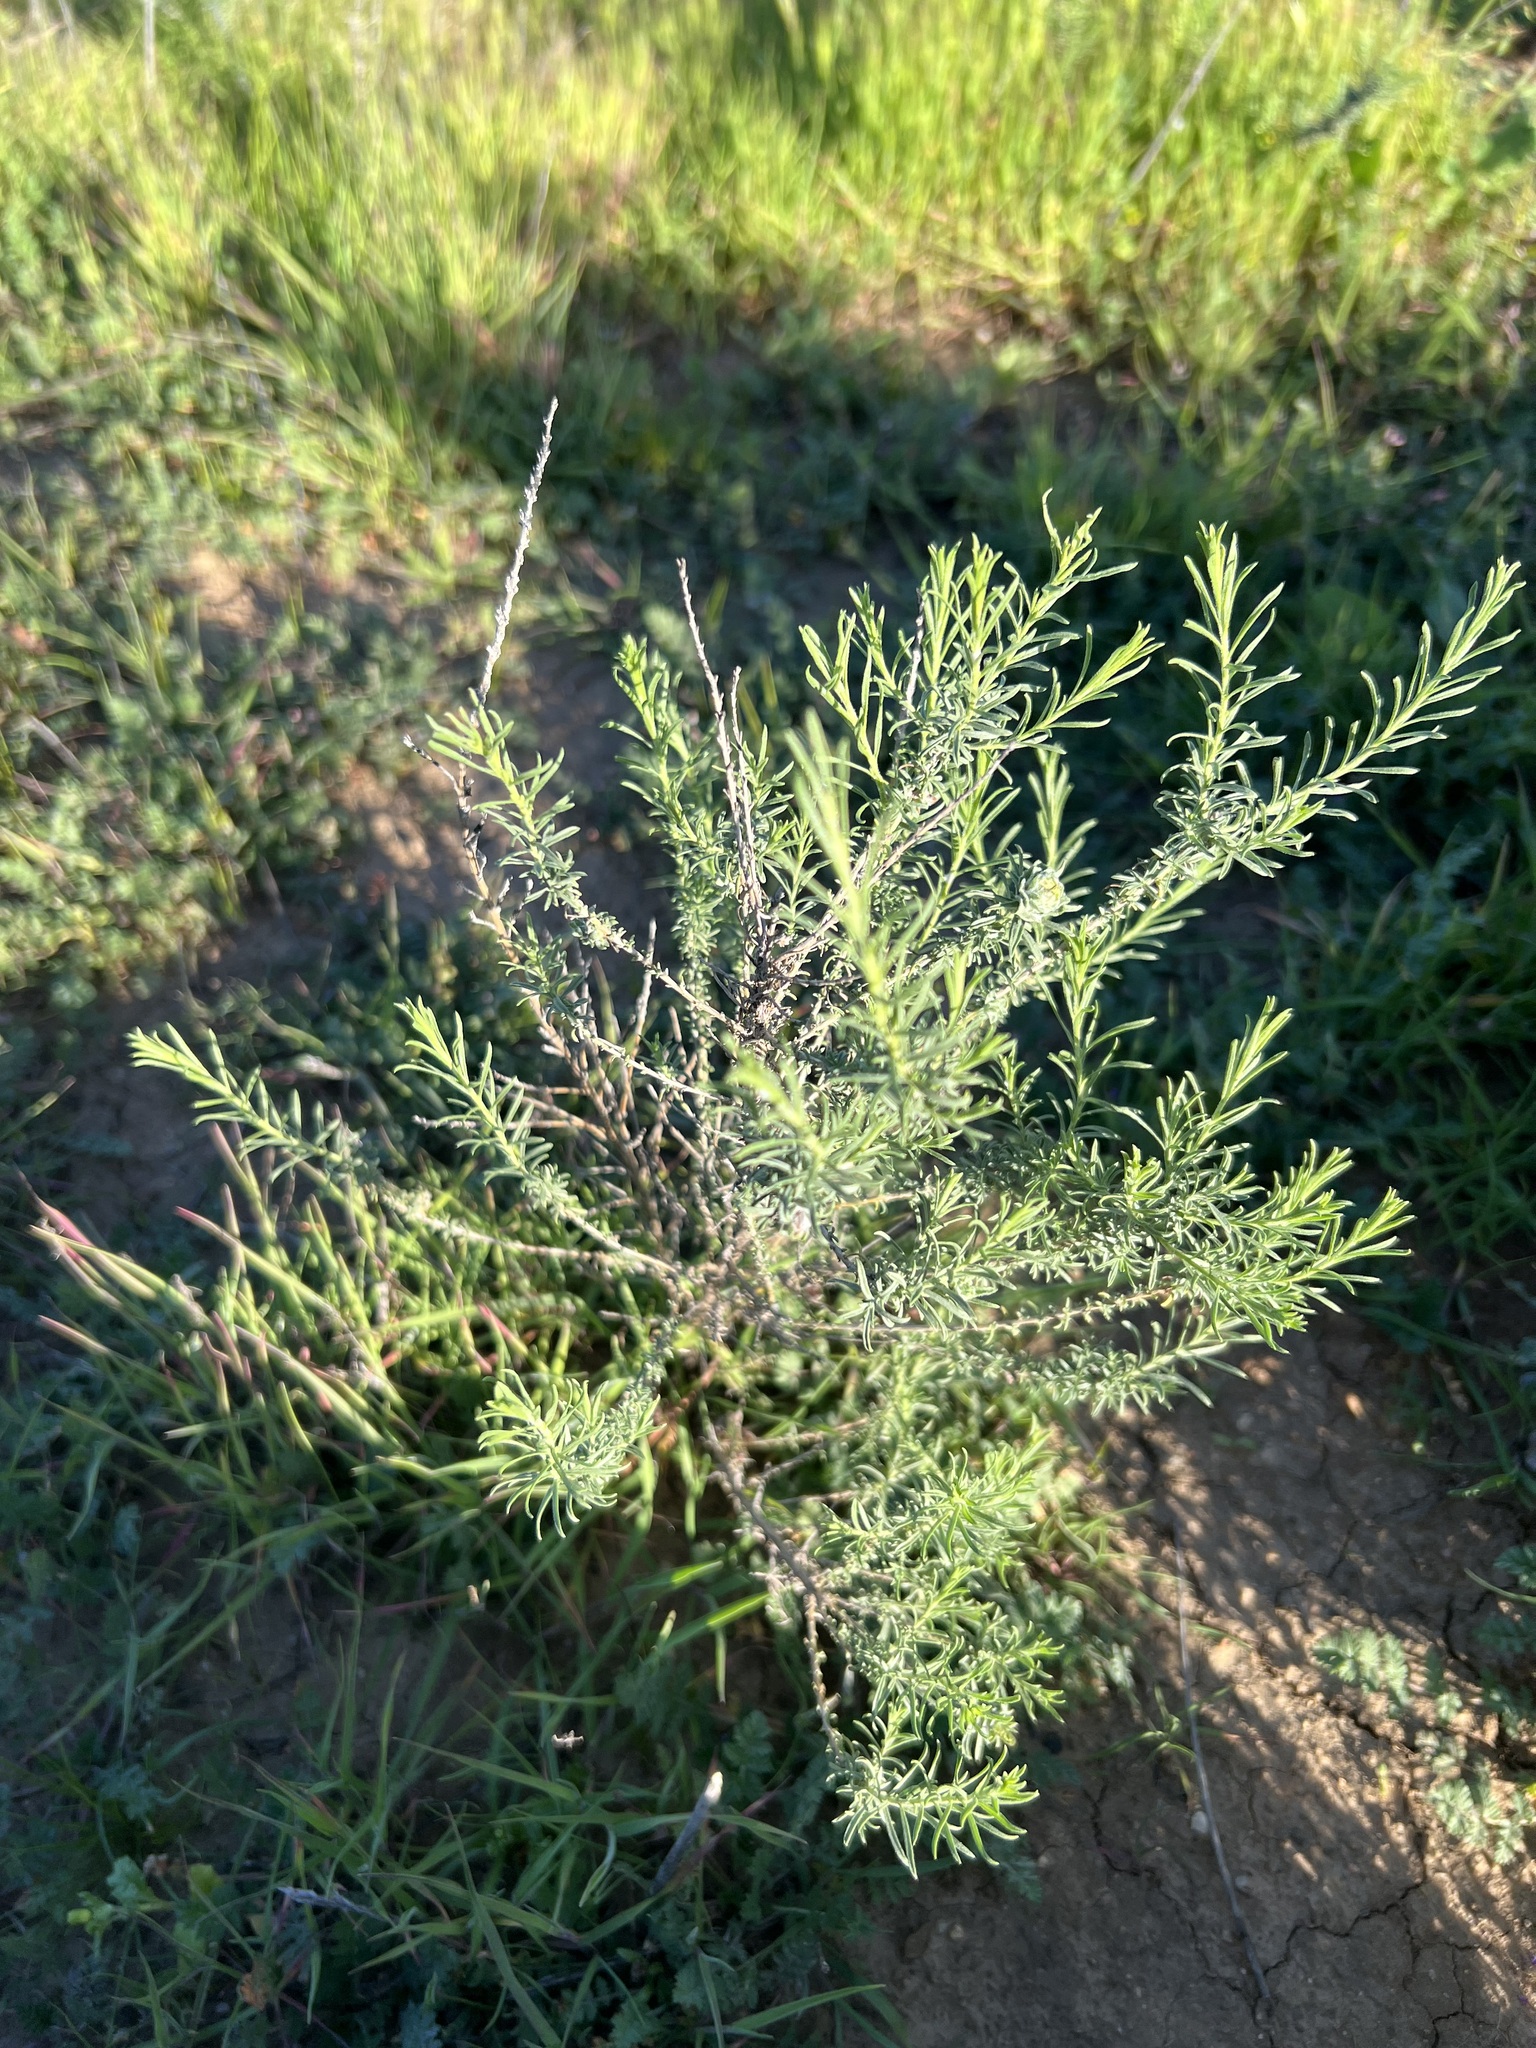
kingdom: Plantae
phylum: Tracheophyta
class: Magnoliopsida
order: Asterales
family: Asteraceae
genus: Ericameria
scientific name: Ericameria palmeri
